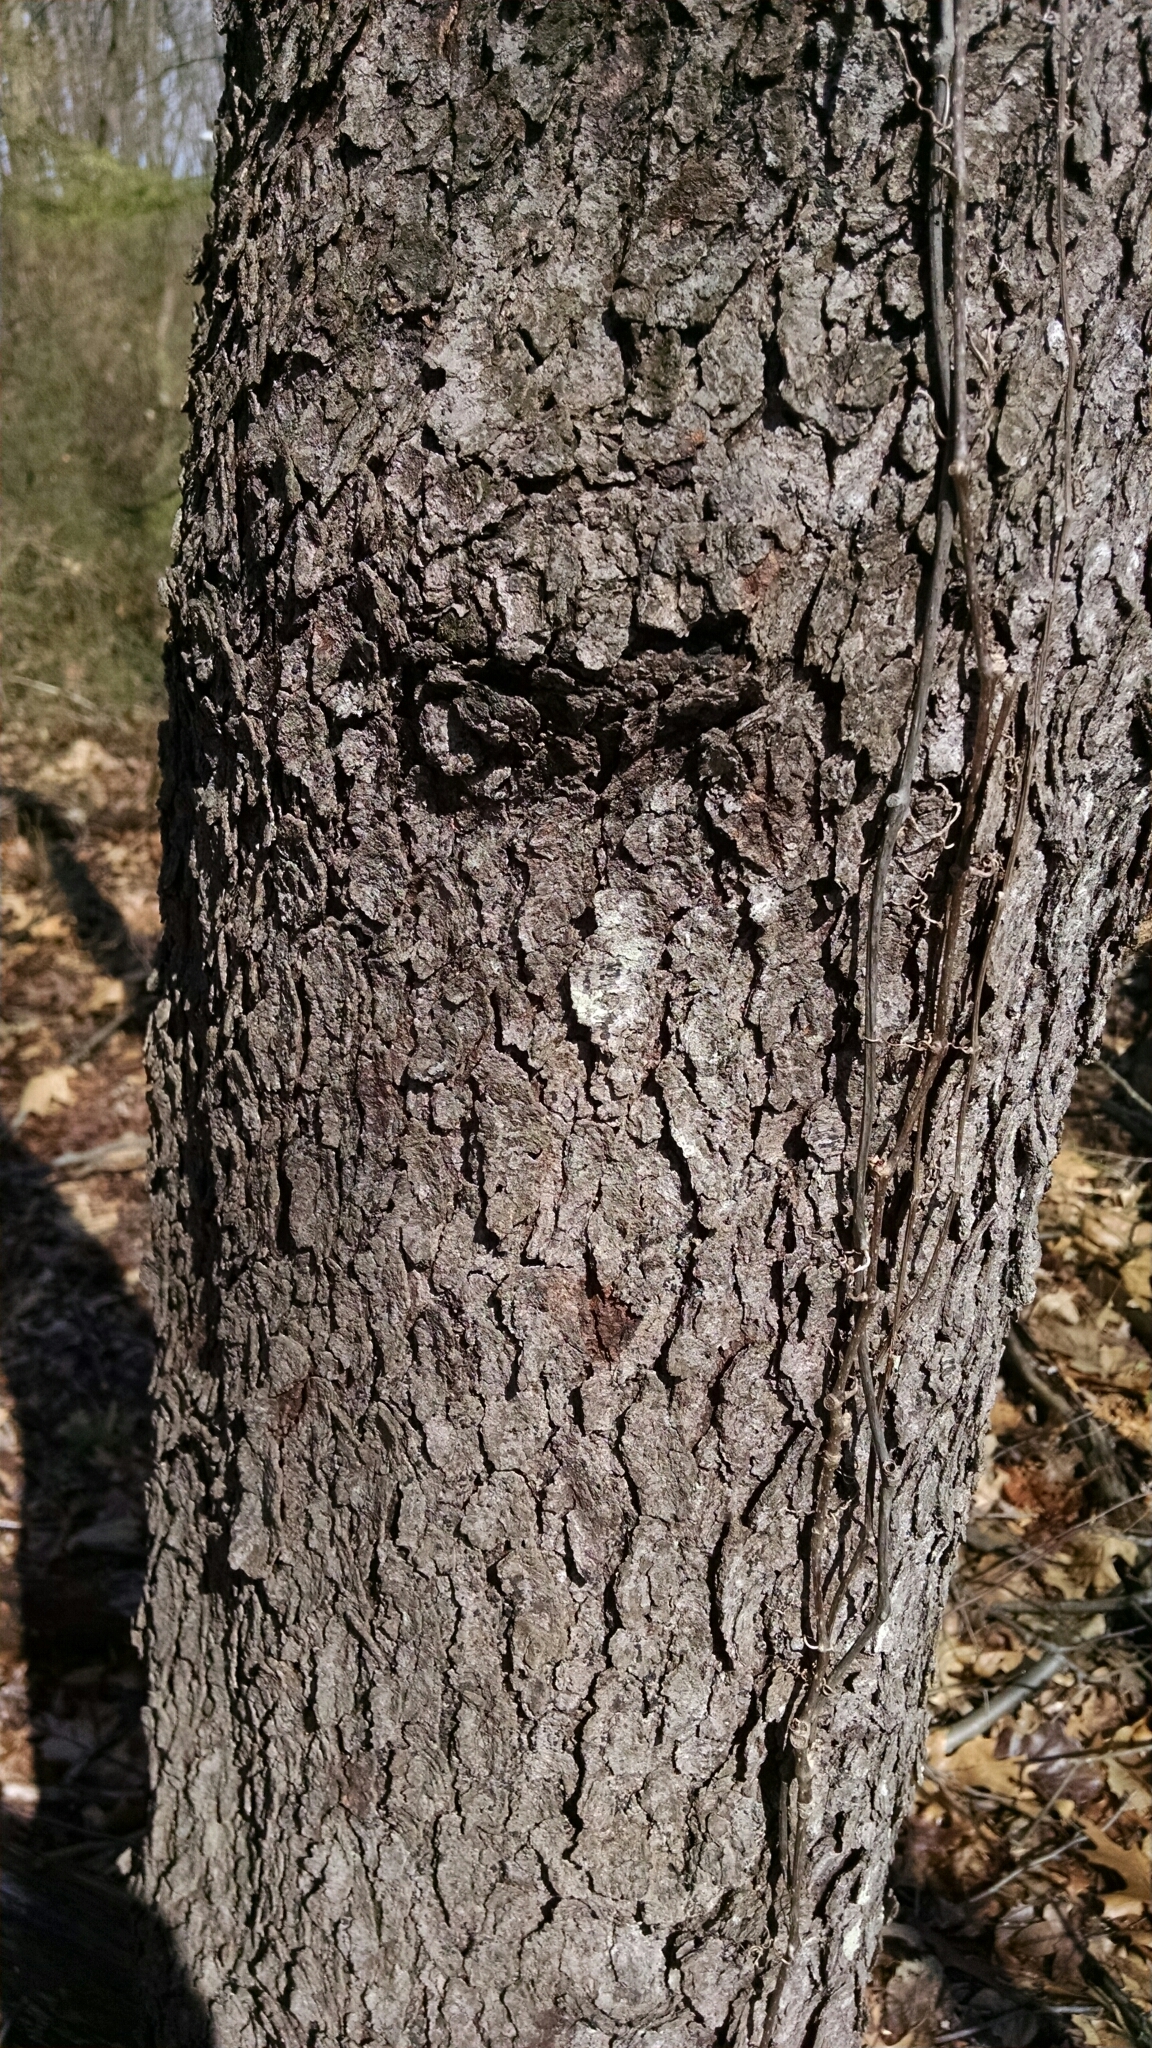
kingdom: Plantae
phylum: Tracheophyta
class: Magnoliopsida
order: Rosales
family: Rosaceae
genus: Prunus
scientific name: Prunus serotina
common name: Black cherry
